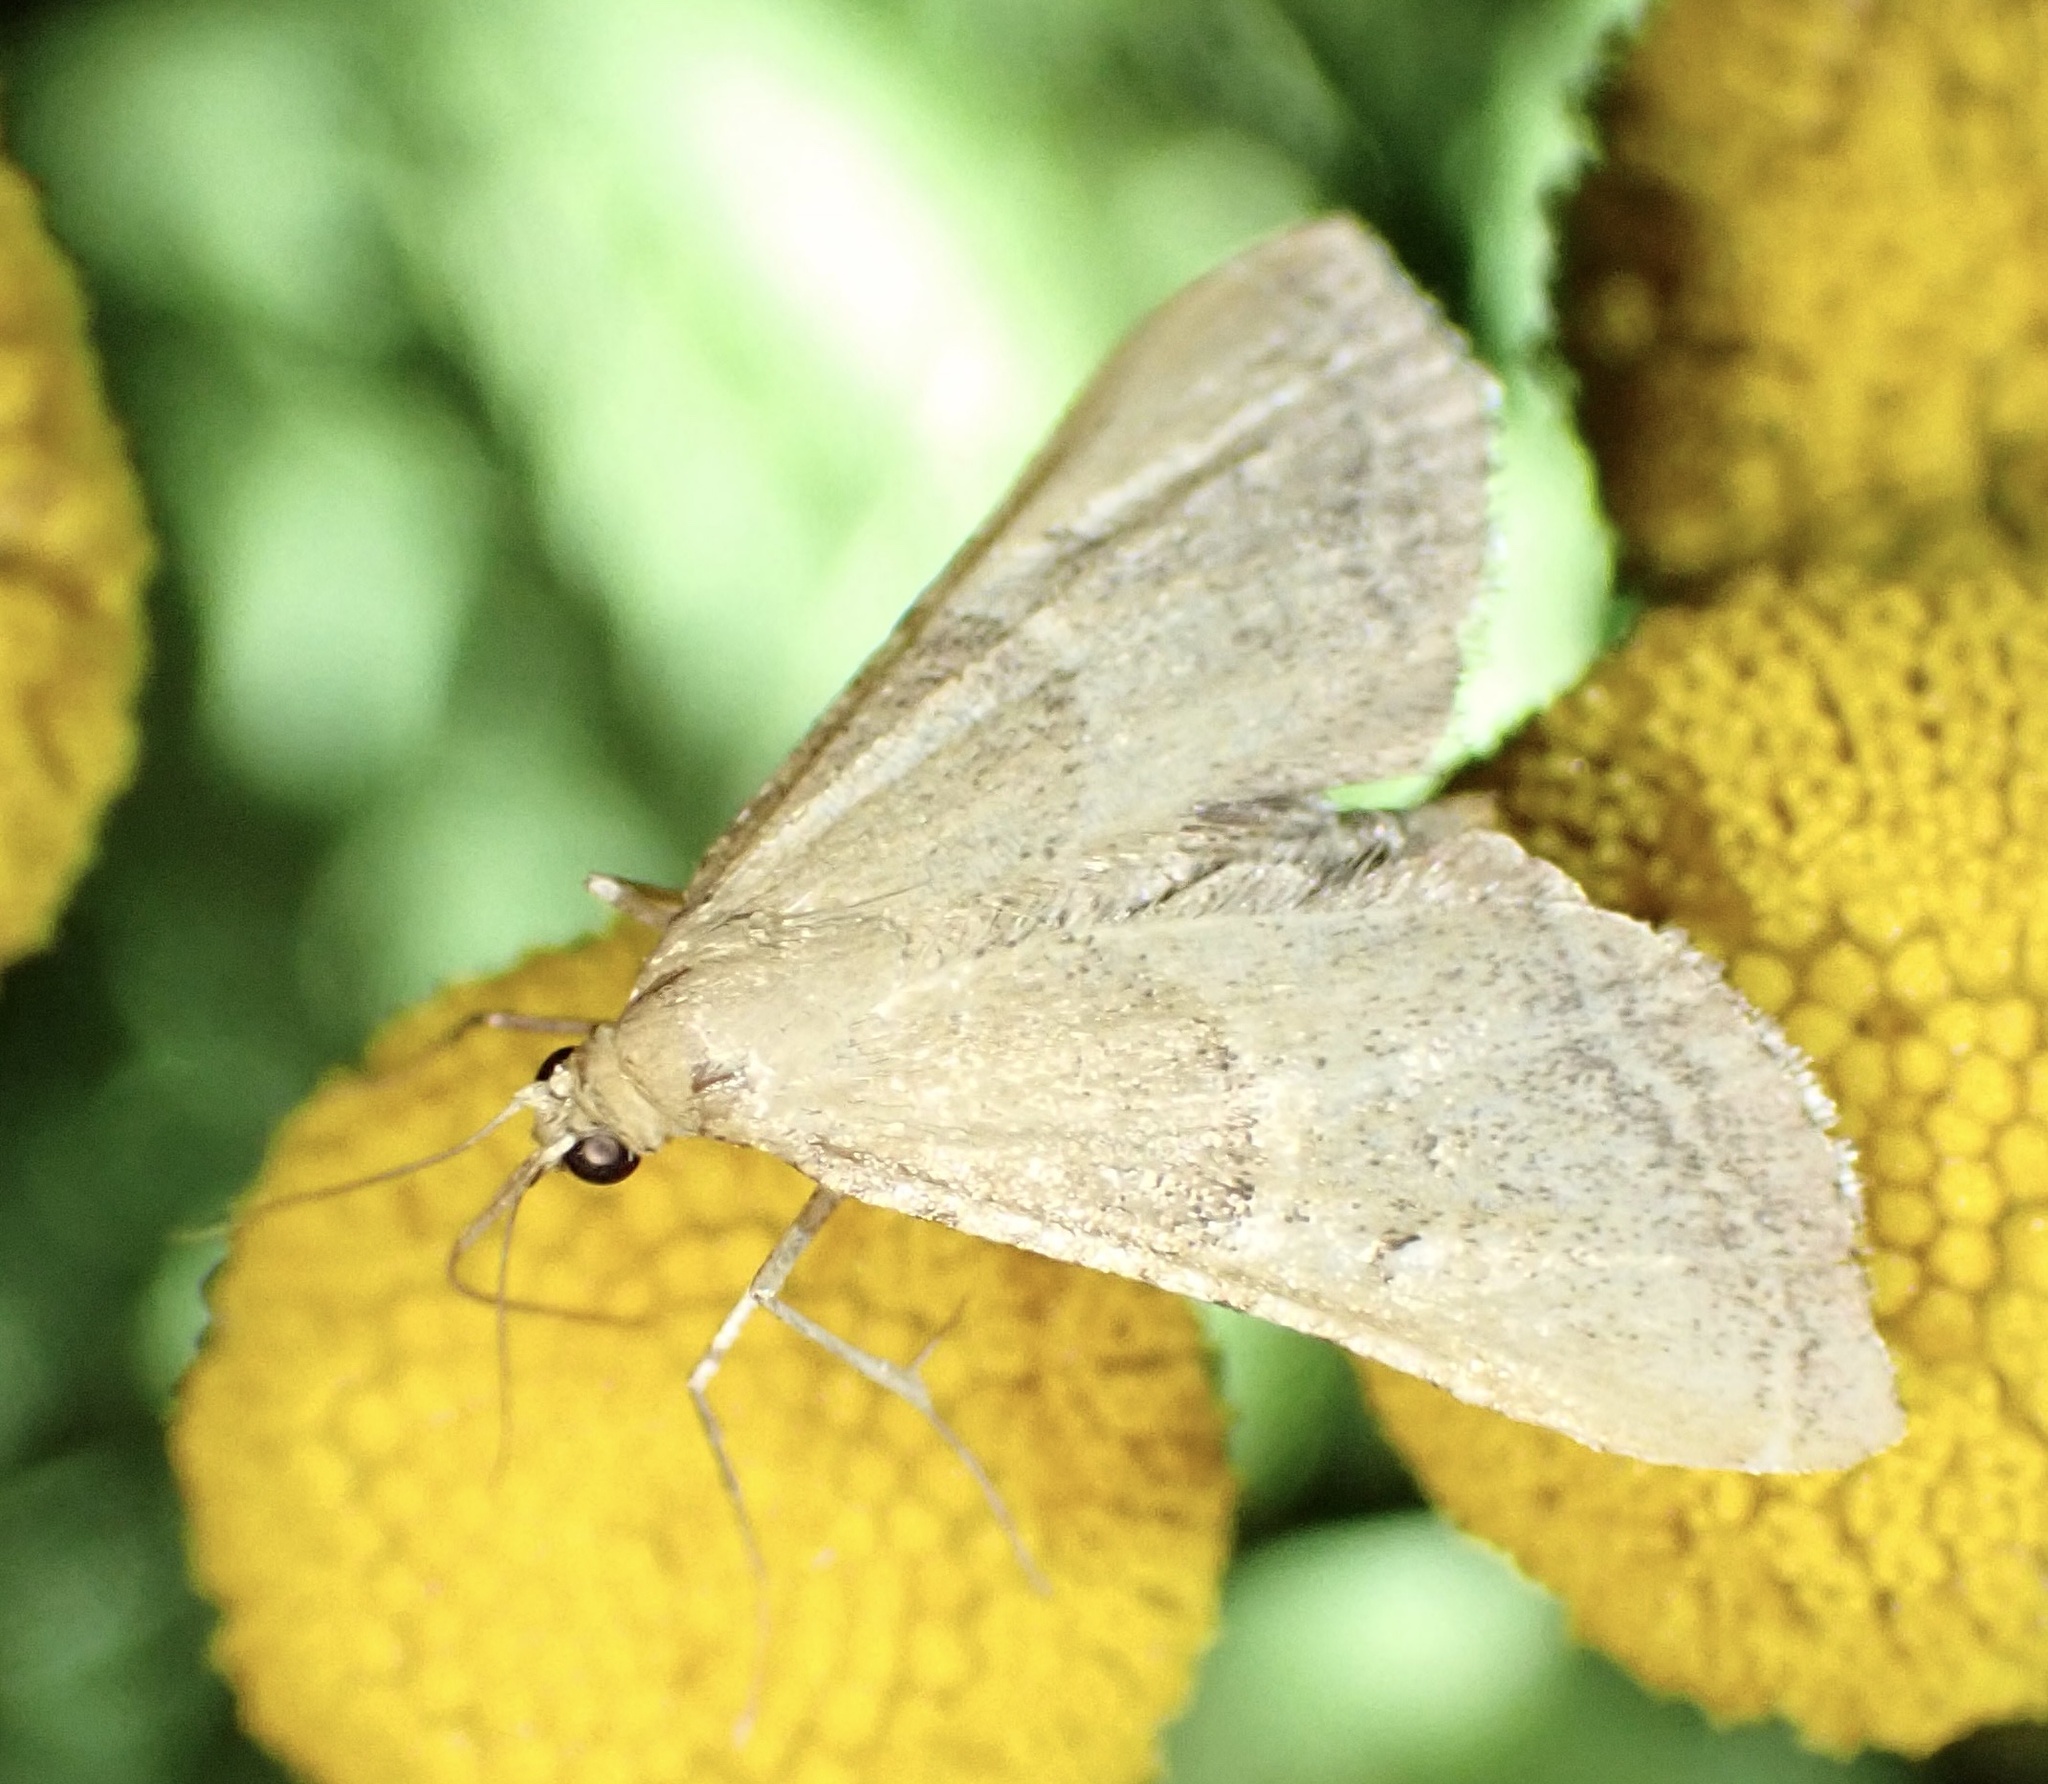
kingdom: Animalia
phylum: Arthropoda
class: Insecta
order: Lepidoptera
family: Pyralidae
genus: Endotricha
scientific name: Endotricha flammealis
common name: Rosy tabby
